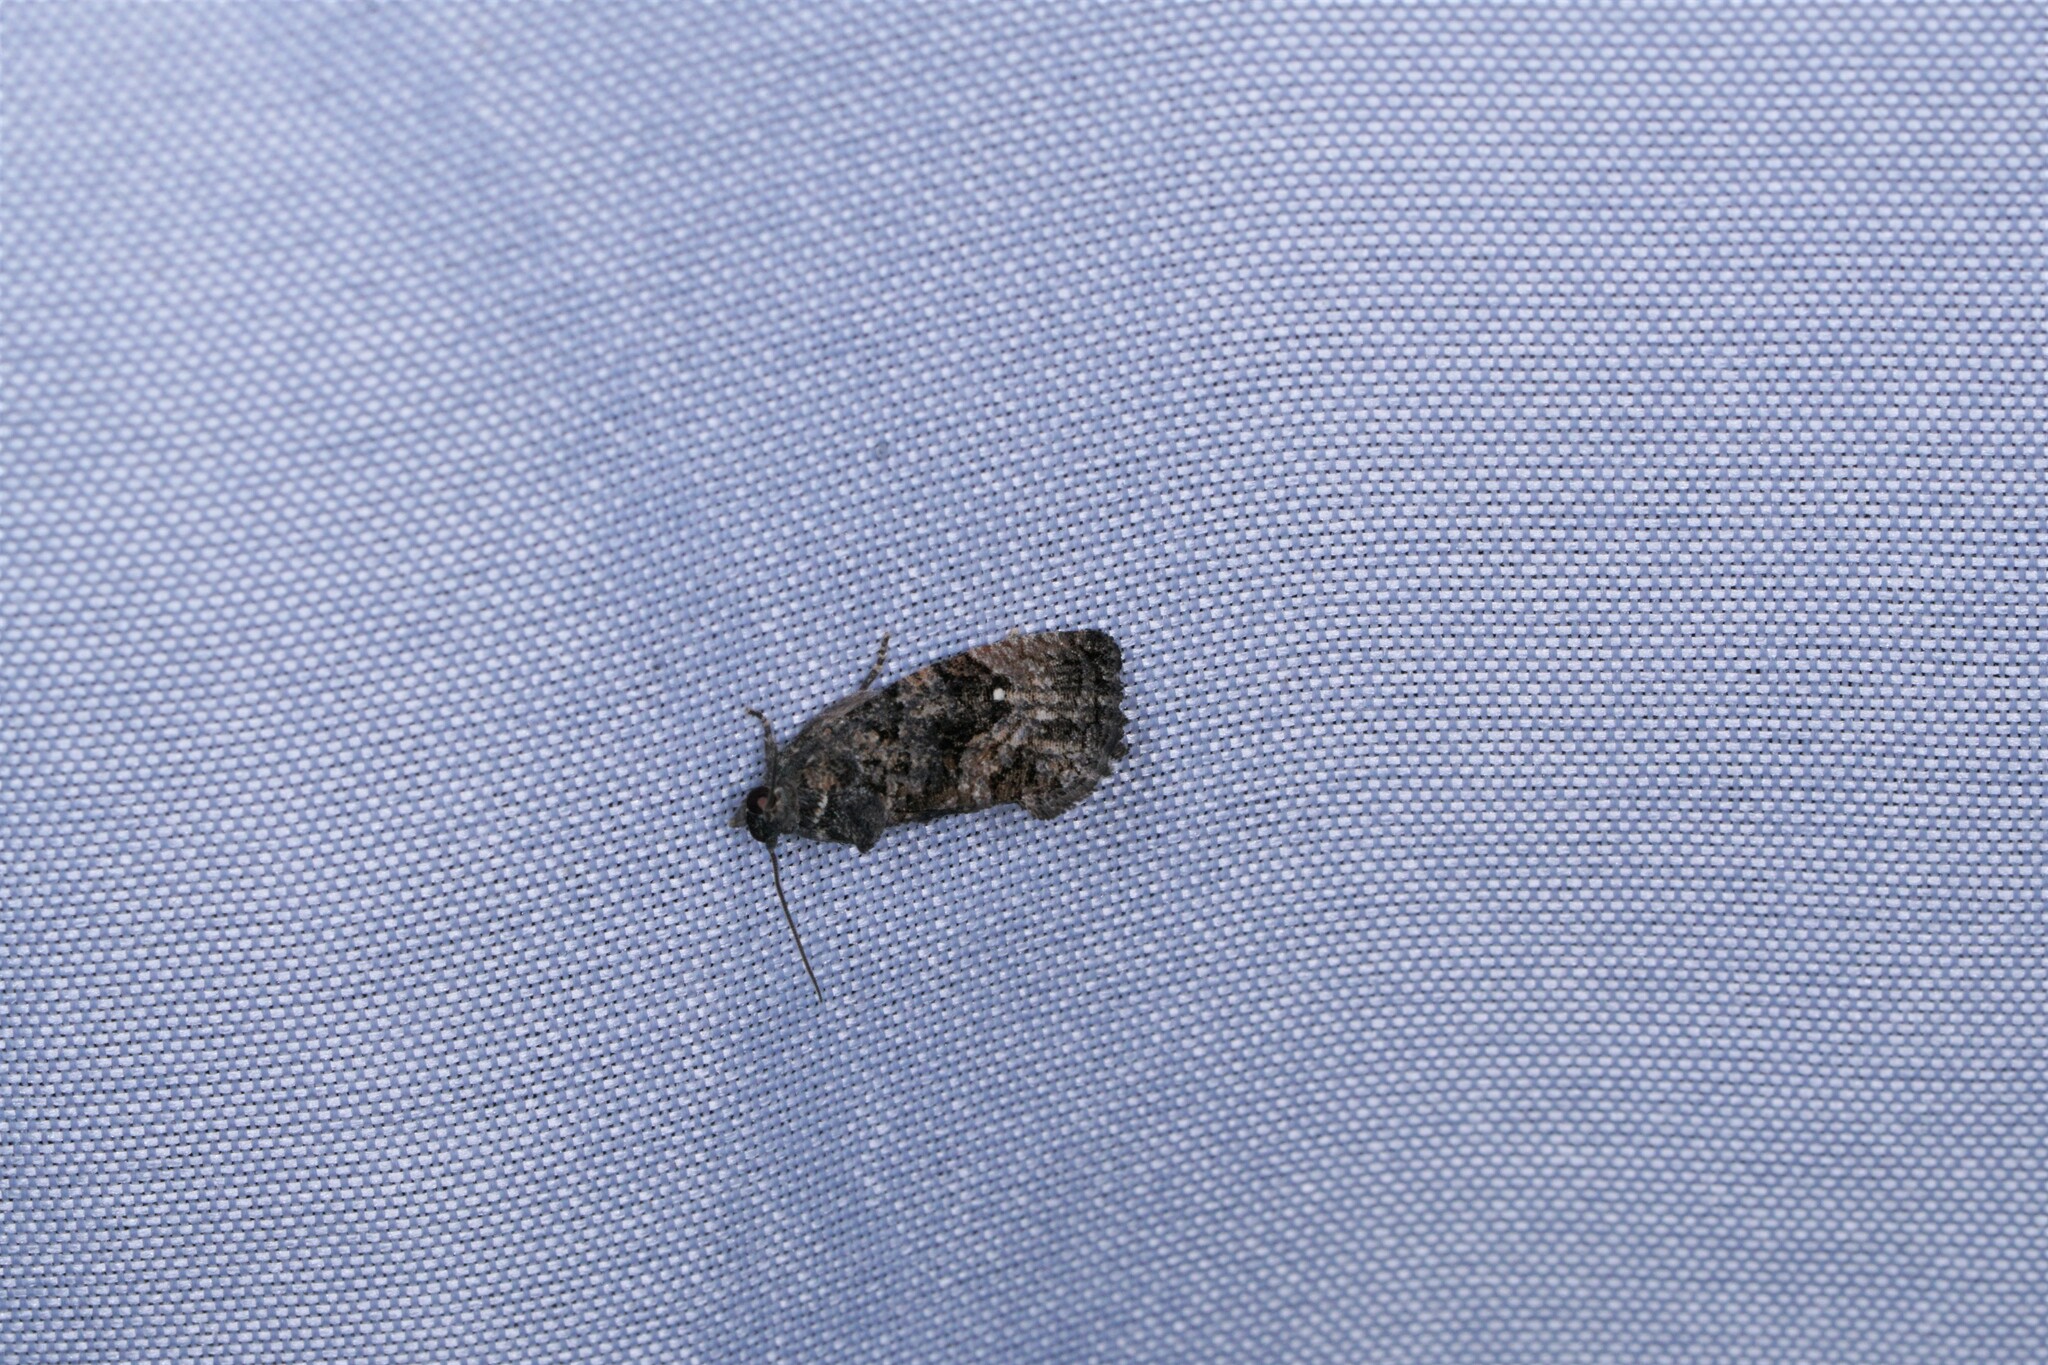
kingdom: Animalia
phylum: Arthropoda
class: Insecta
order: Lepidoptera
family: Tortricidae
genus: Gymnandrosoma
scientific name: Gymnandrosoma punctidiscanum
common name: Dotted ecdytolopha moth
